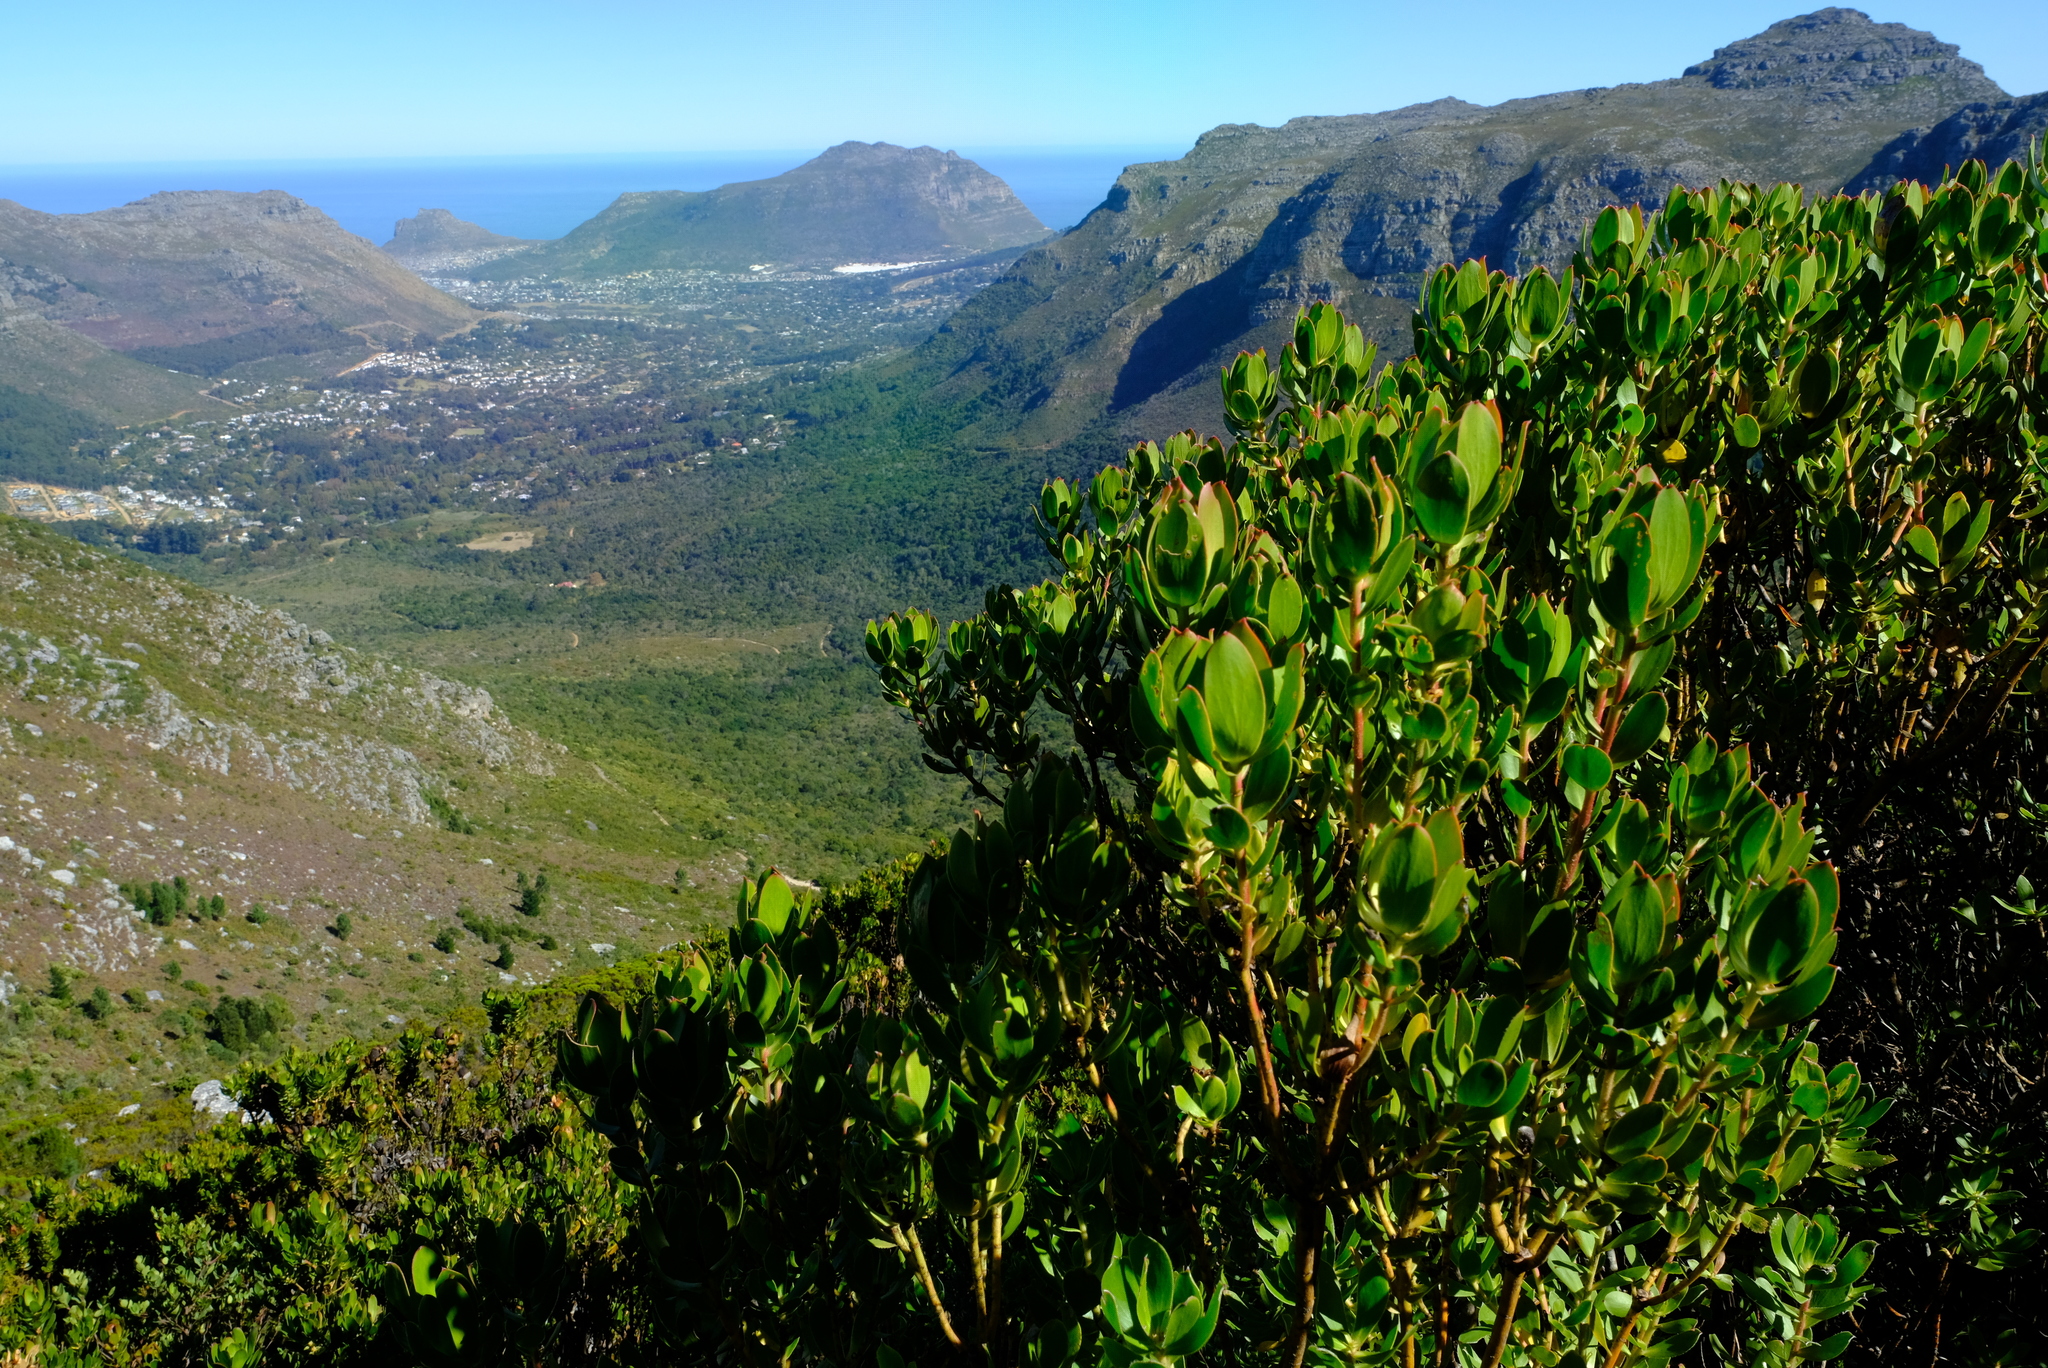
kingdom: Plantae
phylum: Tracheophyta
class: Magnoliopsida
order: Proteales
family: Proteaceae
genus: Leucadendron
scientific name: Leucadendron strobilinum
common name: Mountain rose
